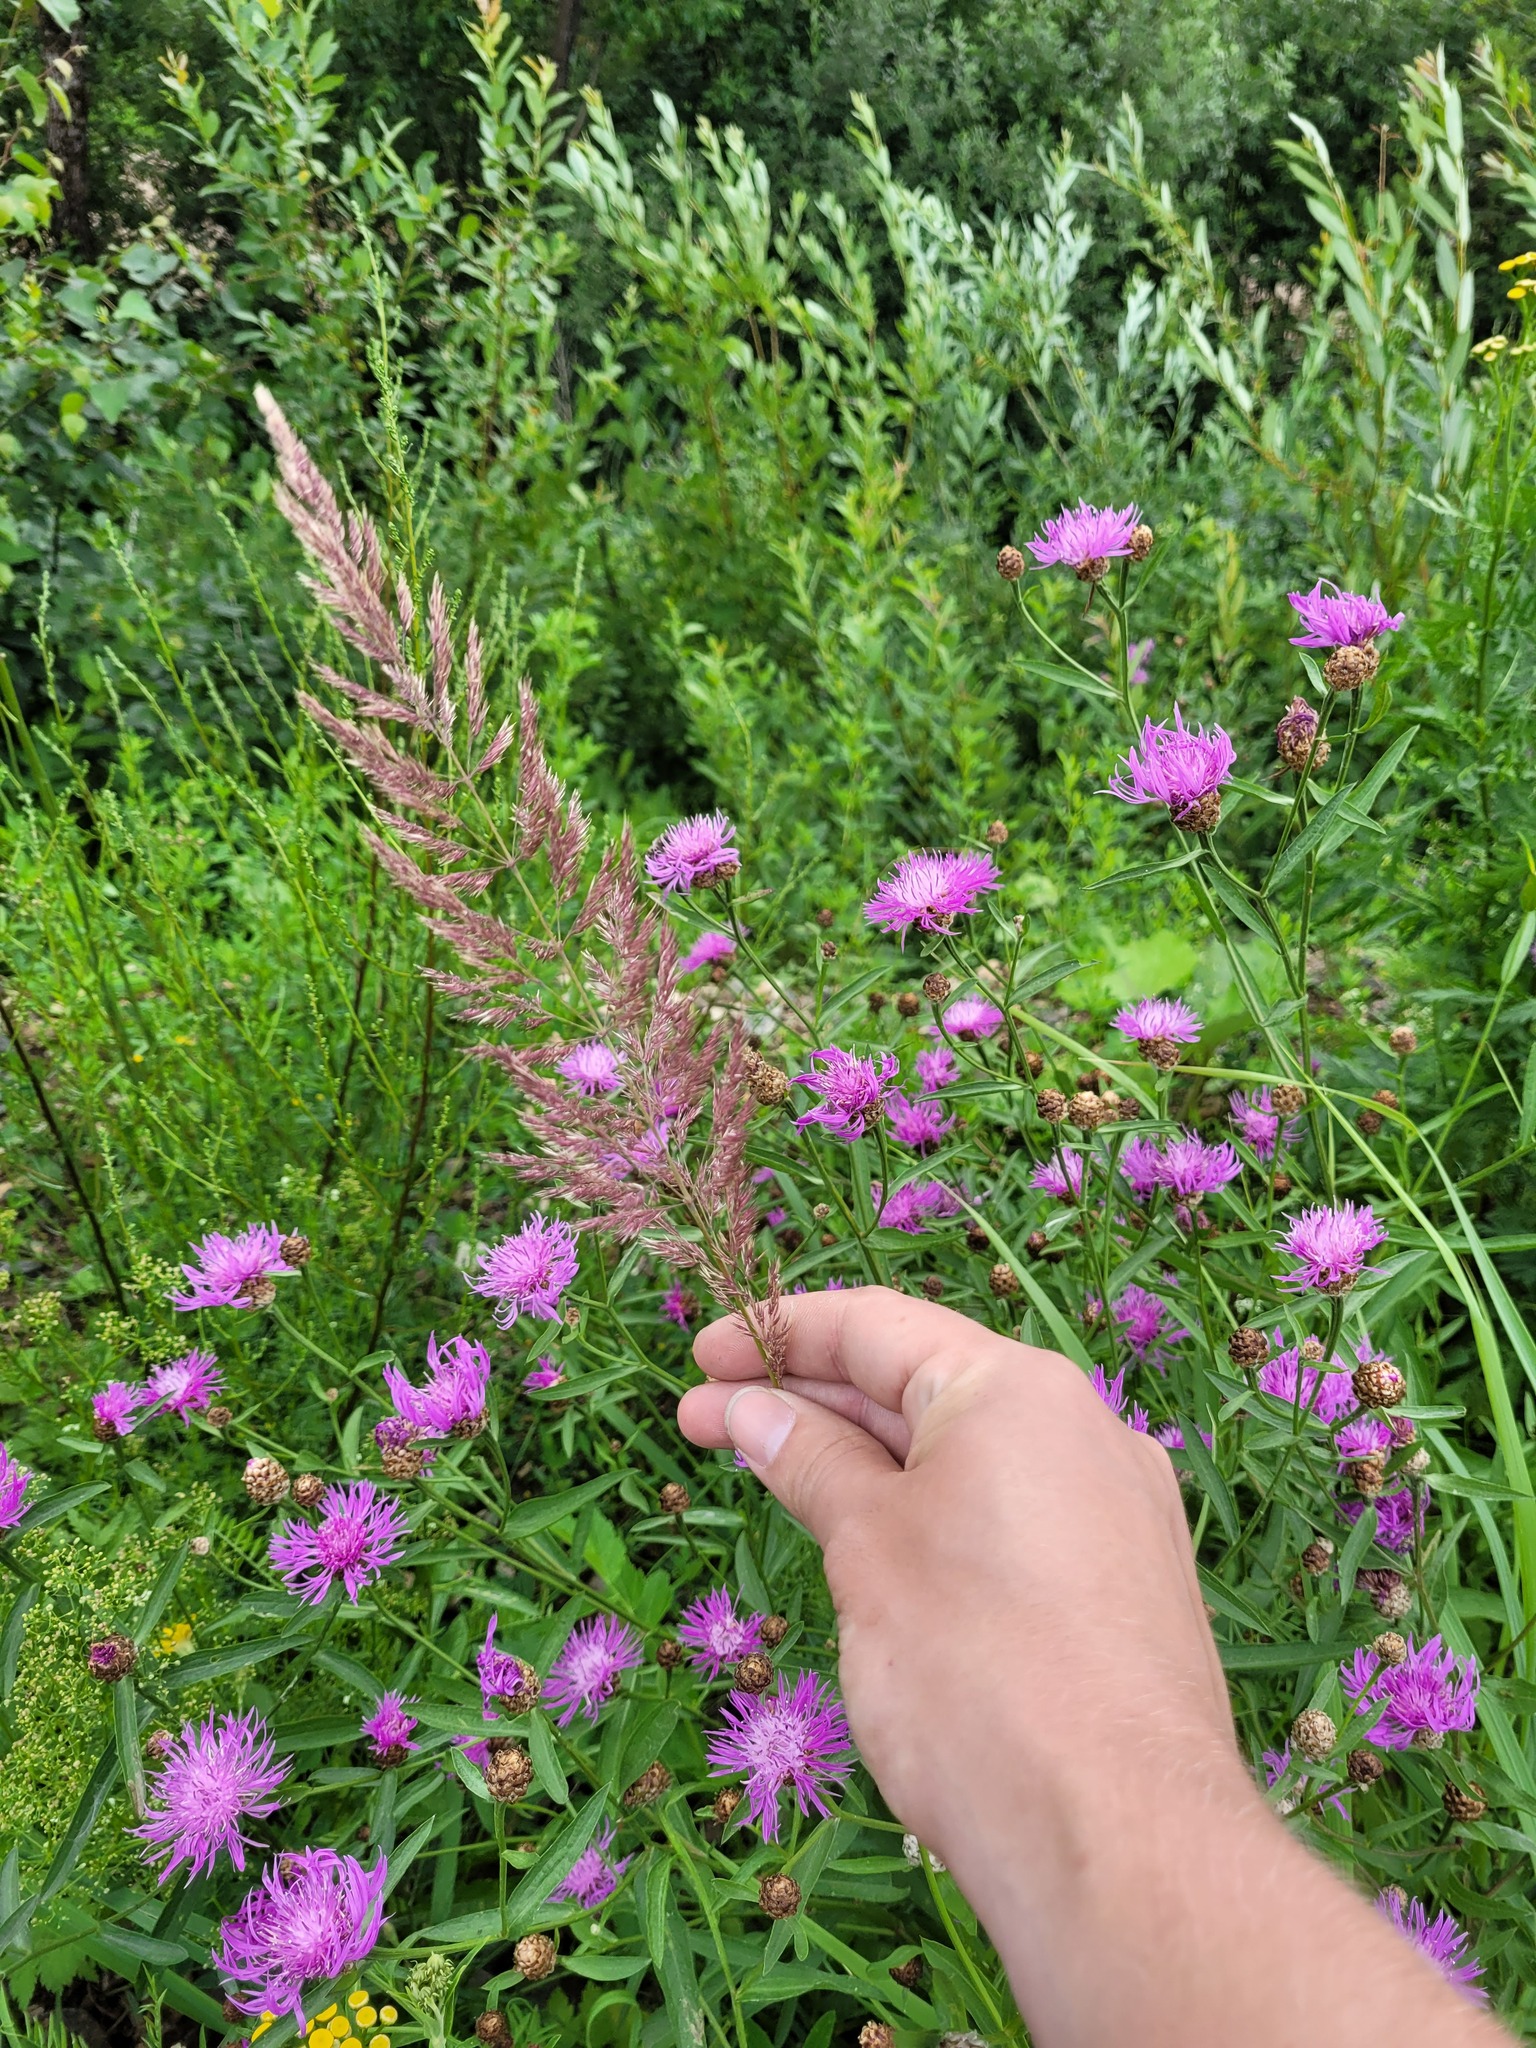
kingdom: Plantae
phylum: Tracheophyta
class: Liliopsida
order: Poales
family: Poaceae
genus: Calamagrostis
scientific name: Calamagrostis epigejos
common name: Wood small-reed
